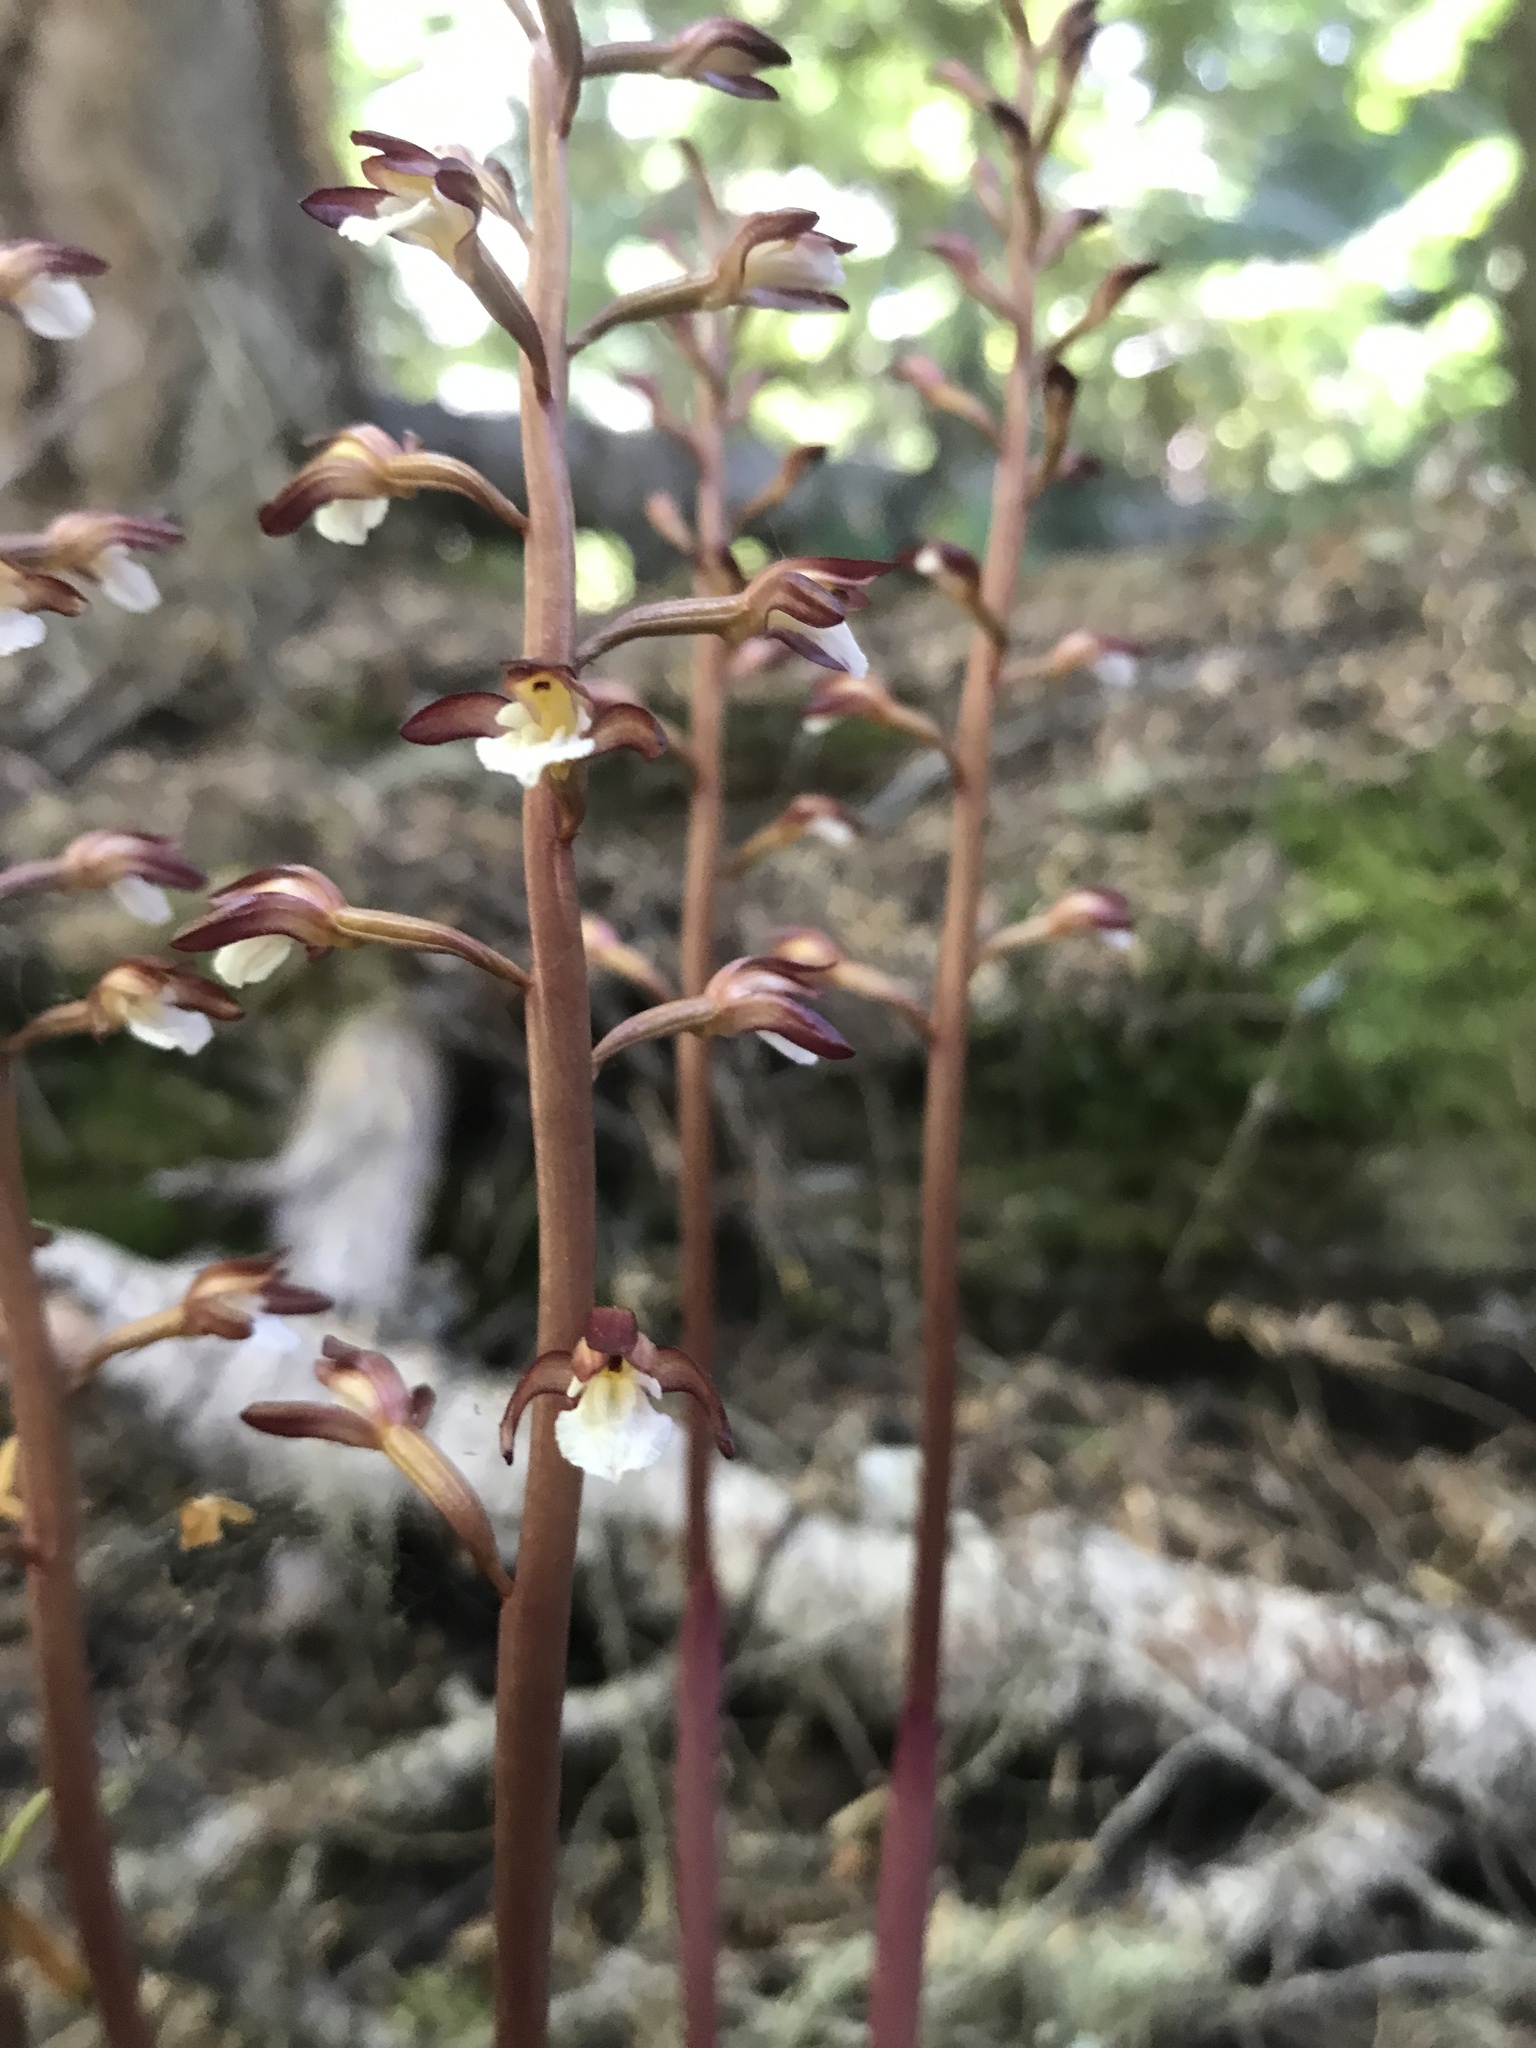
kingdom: Plantae
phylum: Tracheophyta
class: Liliopsida
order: Asparagales
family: Orchidaceae
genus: Corallorhiza
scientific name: Corallorhiza maculata
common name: Spotted coralroot
